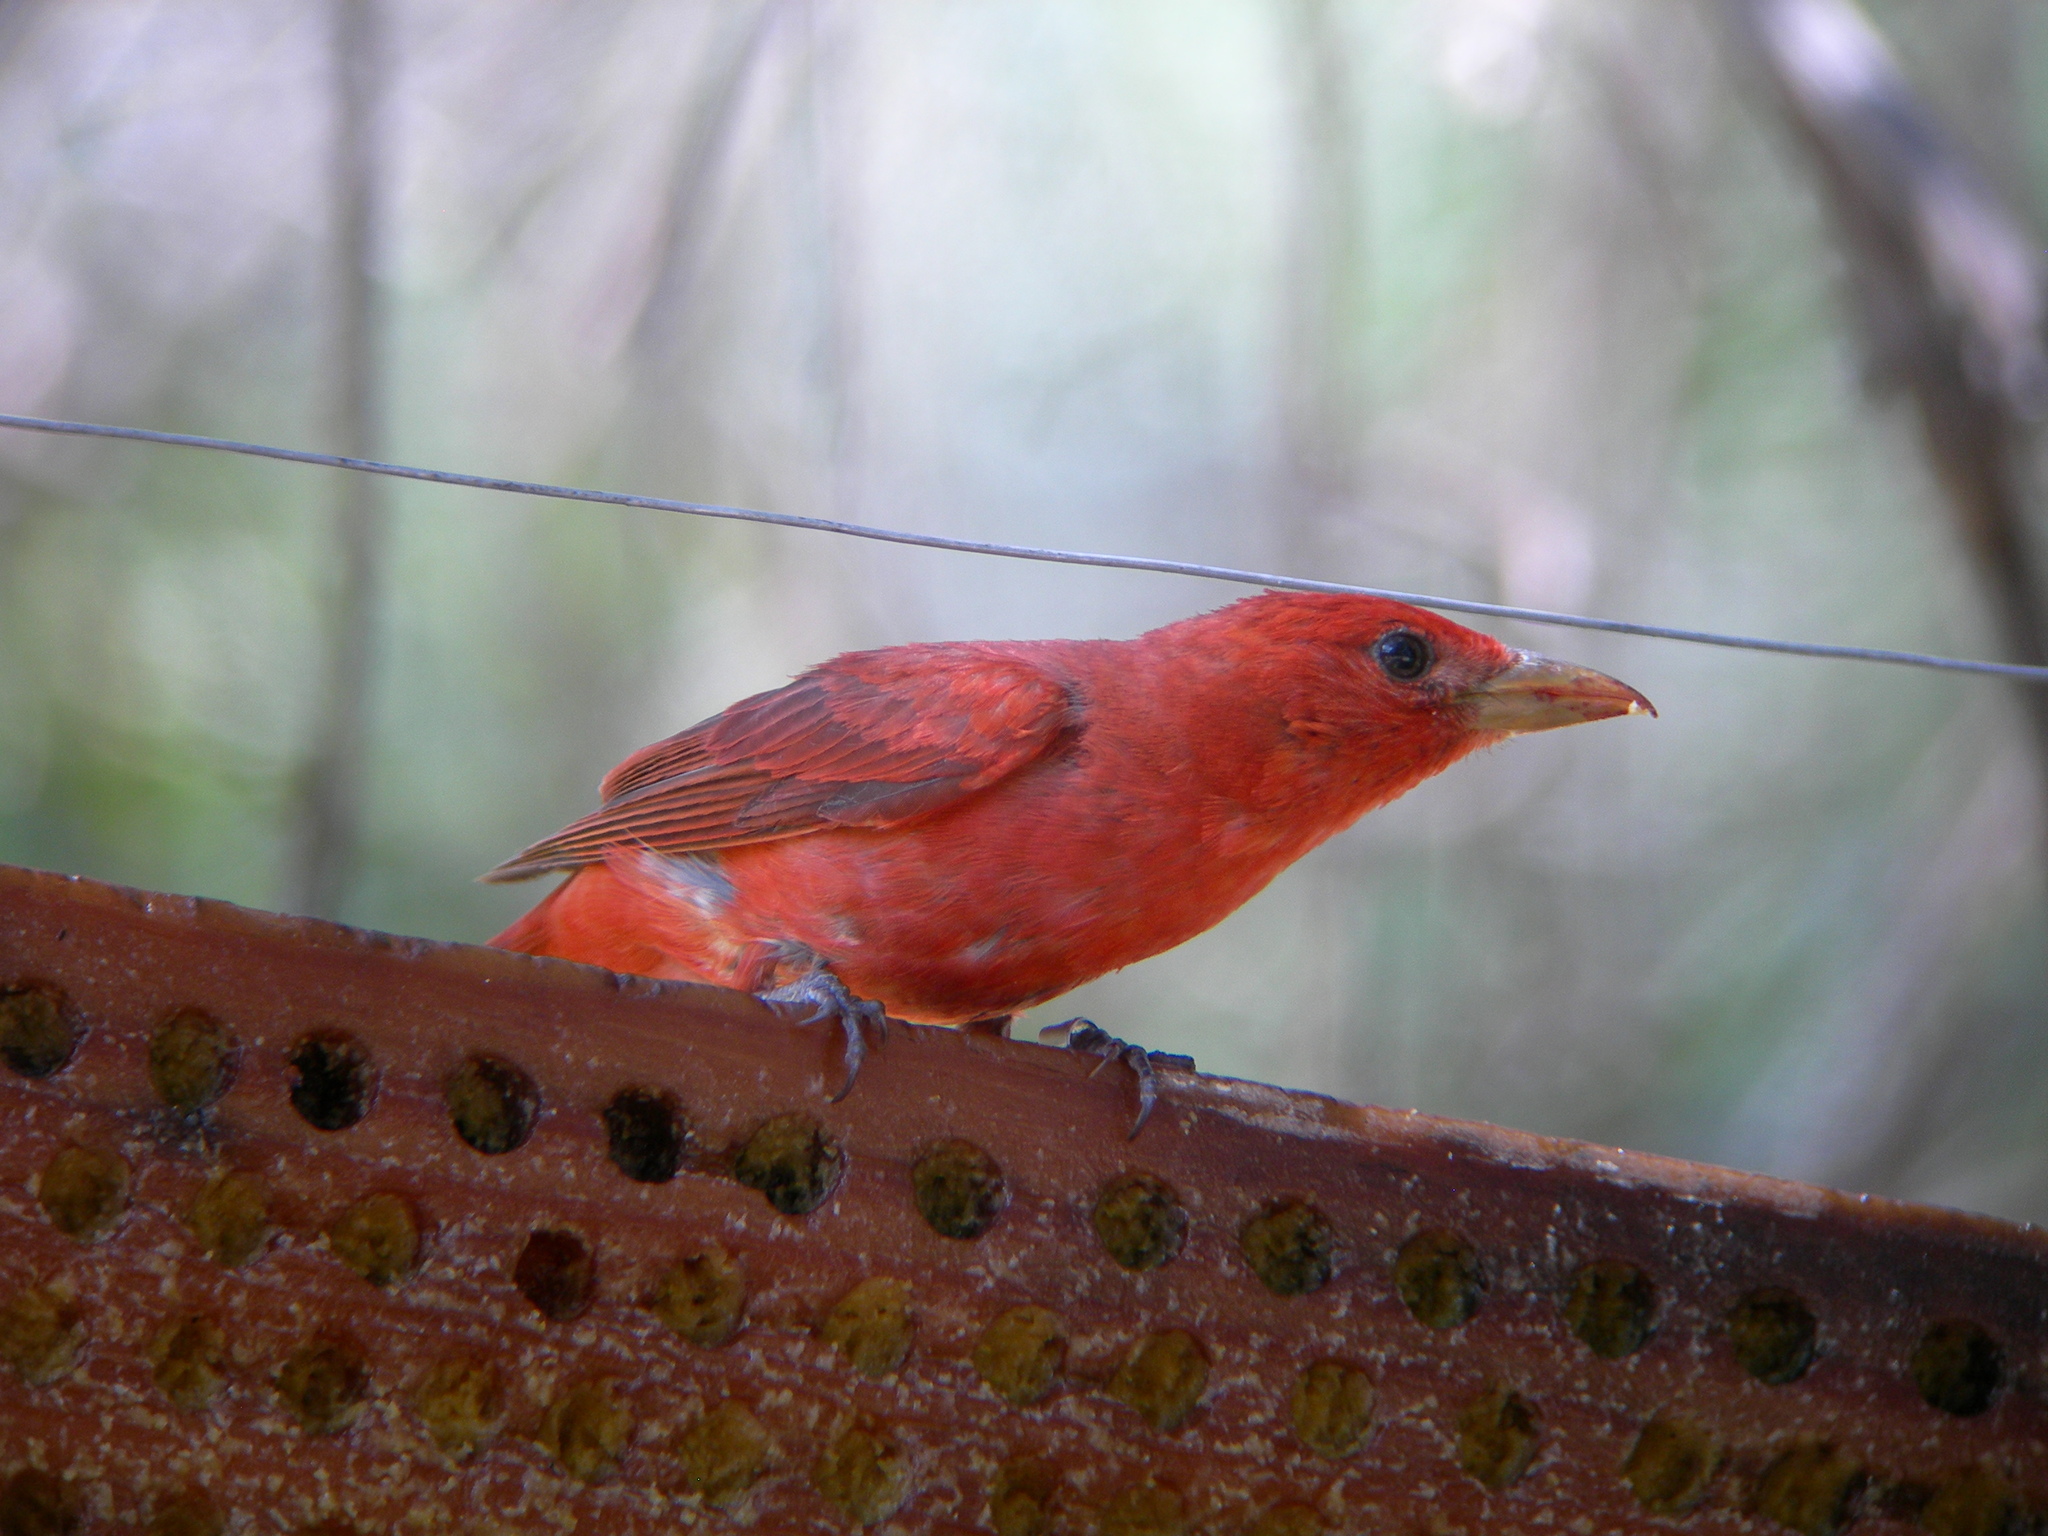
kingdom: Animalia
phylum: Chordata
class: Aves
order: Passeriformes
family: Cardinalidae
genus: Piranga
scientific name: Piranga rubra
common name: Summer tanager
